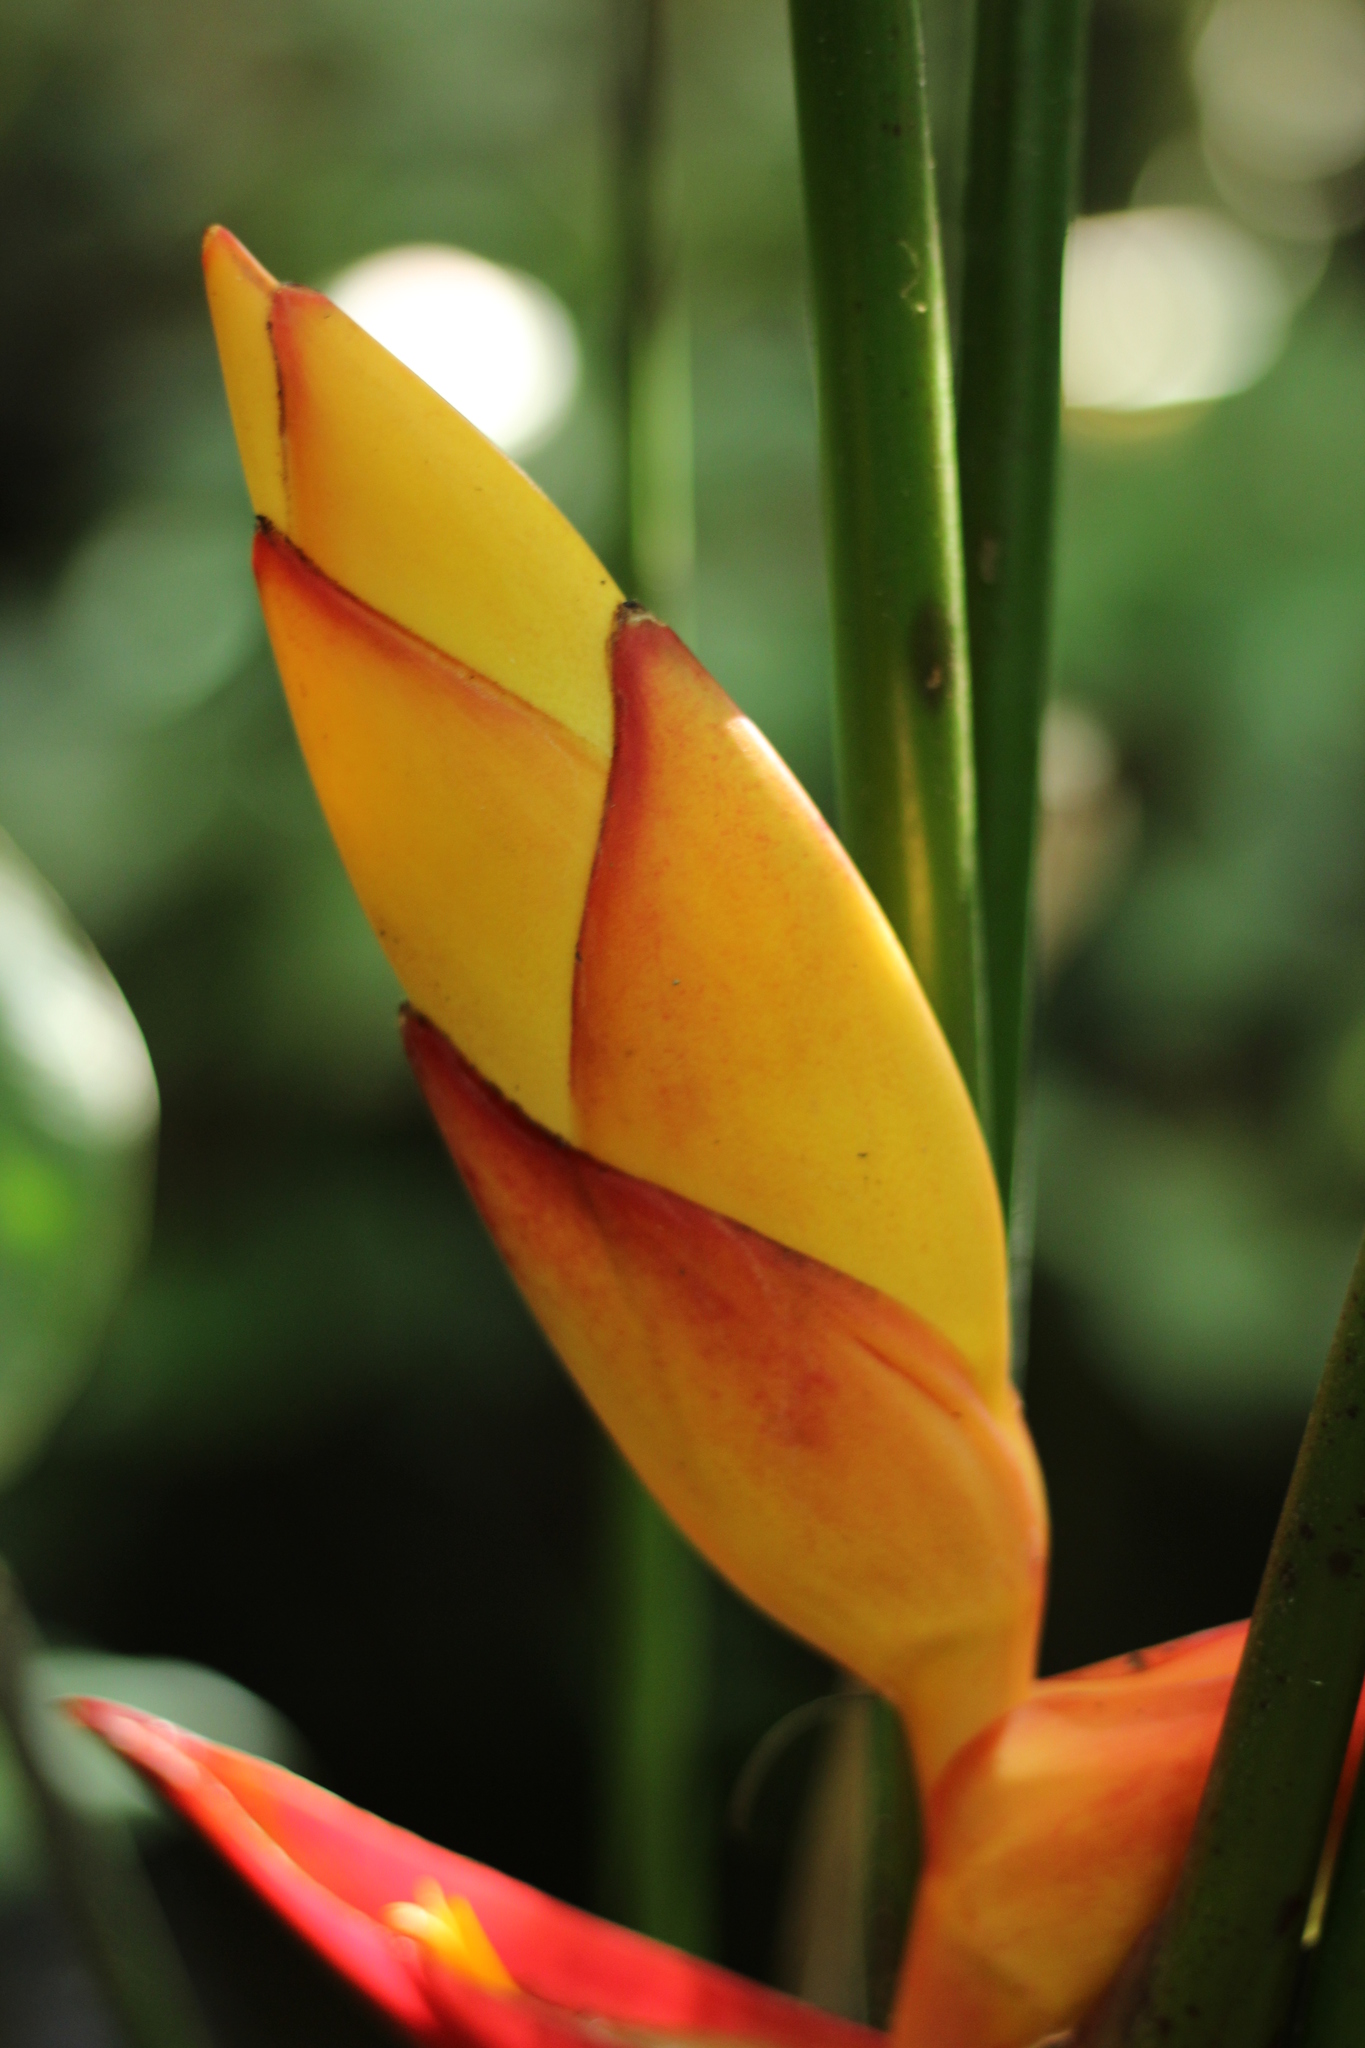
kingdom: Plantae
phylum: Tracheophyta
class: Liliopsida
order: Zingiberales
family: Heliconiaceae
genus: Heliconia
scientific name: Heliconia uxpanapensis
